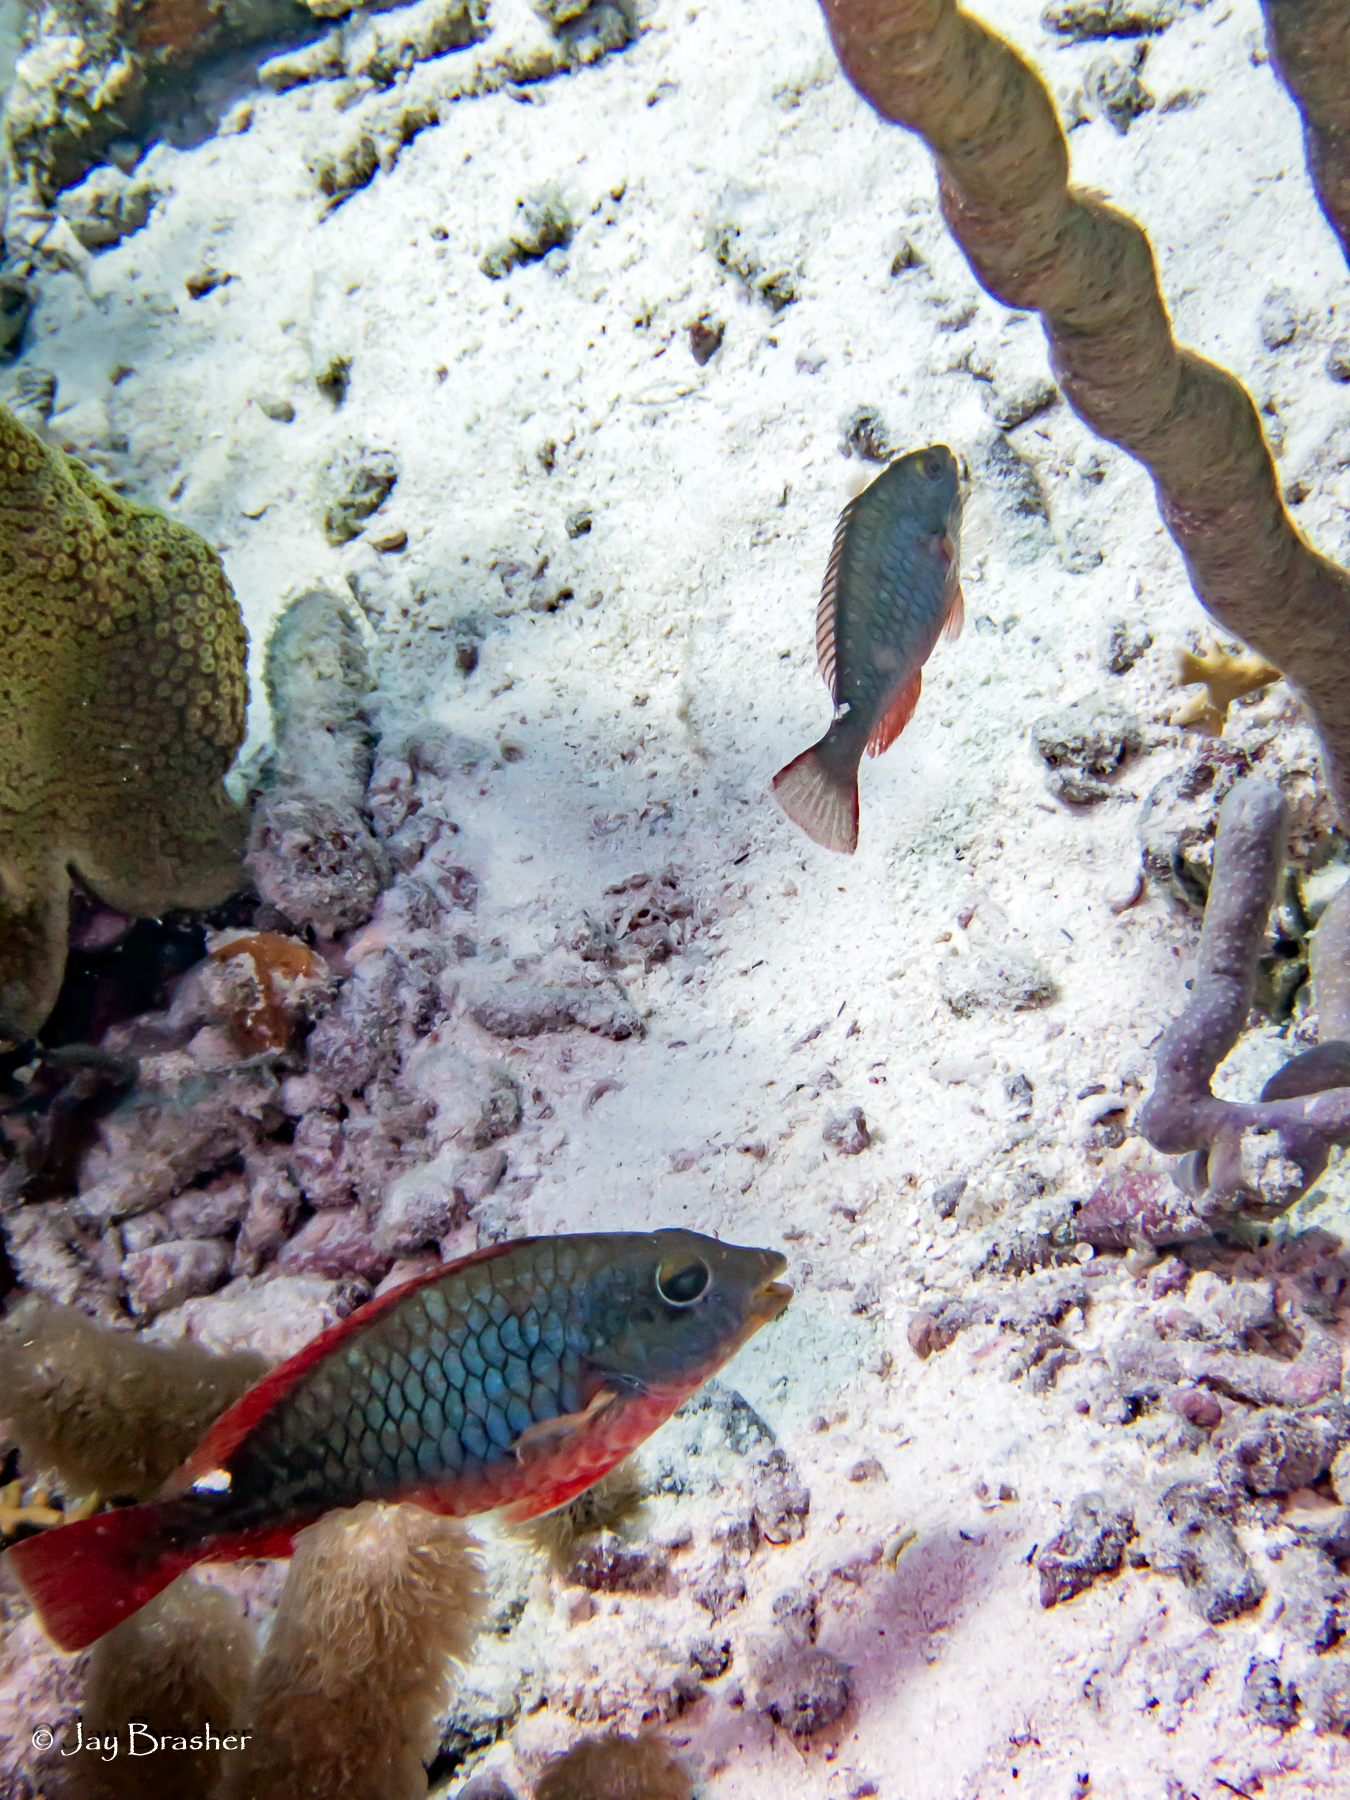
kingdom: Animalia
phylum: Chordata
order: Perciformes
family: Scaridae
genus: Sparisoma
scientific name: Sparisoma aurofrenatum
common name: Redband parrotfish
